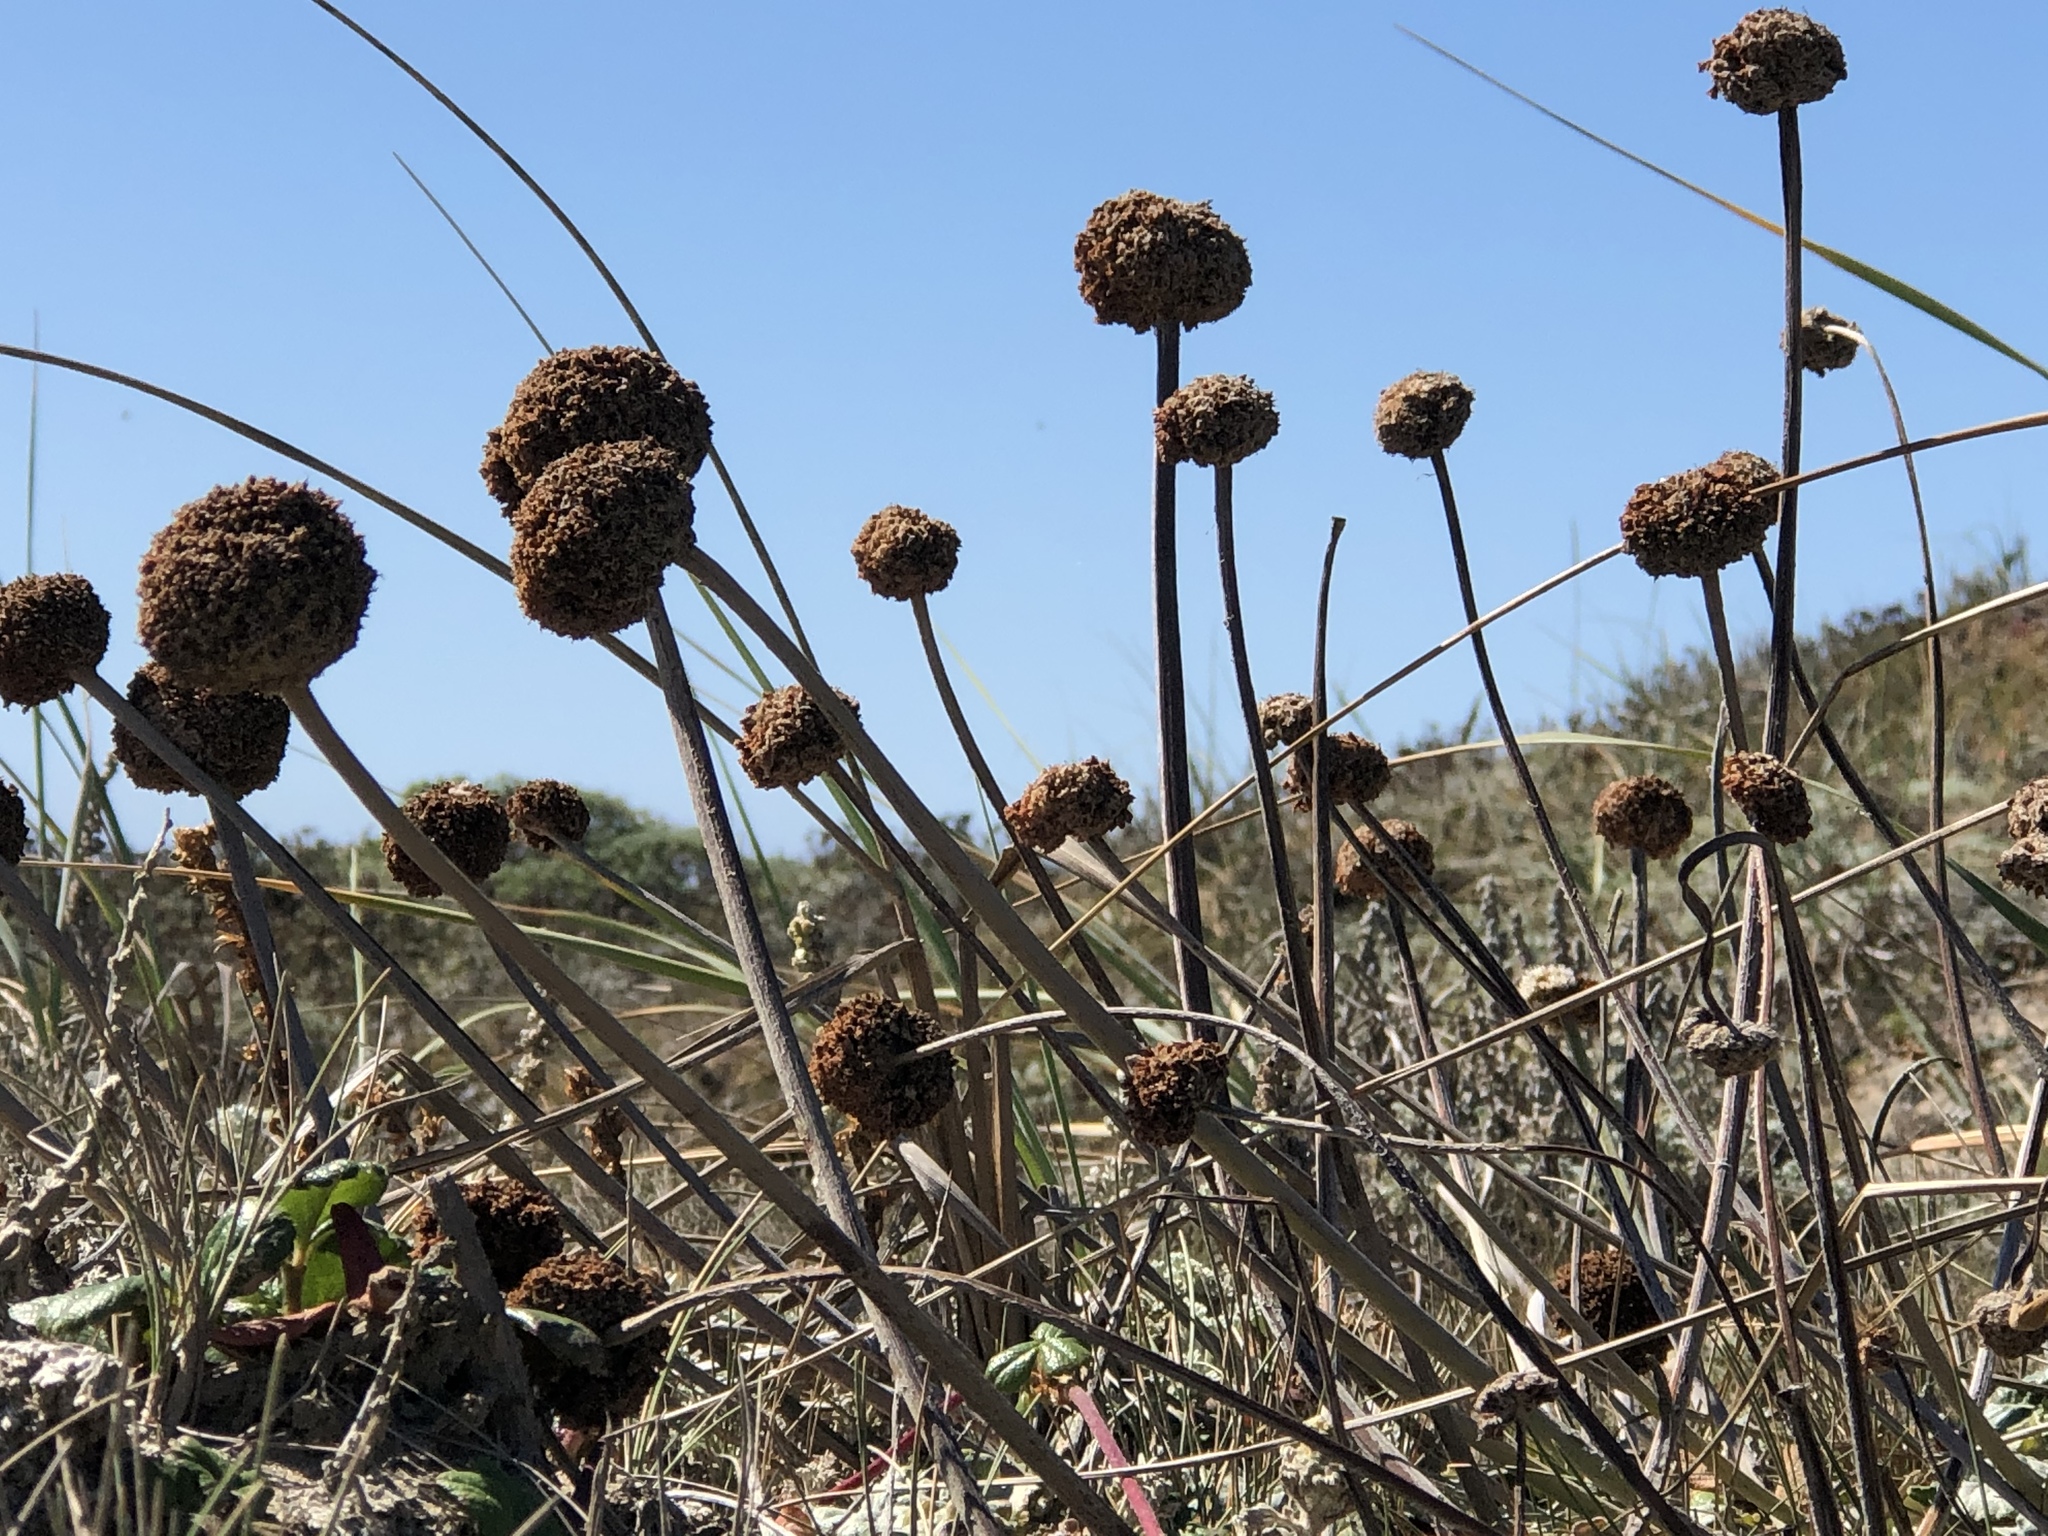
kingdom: Plantae
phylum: Tracheophyta
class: Magnoliopsida
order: Caryophyllales
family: Polygonaceae
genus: Eriogonum
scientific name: Eriogonum latifolium
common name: Seaside wild buckwheat
